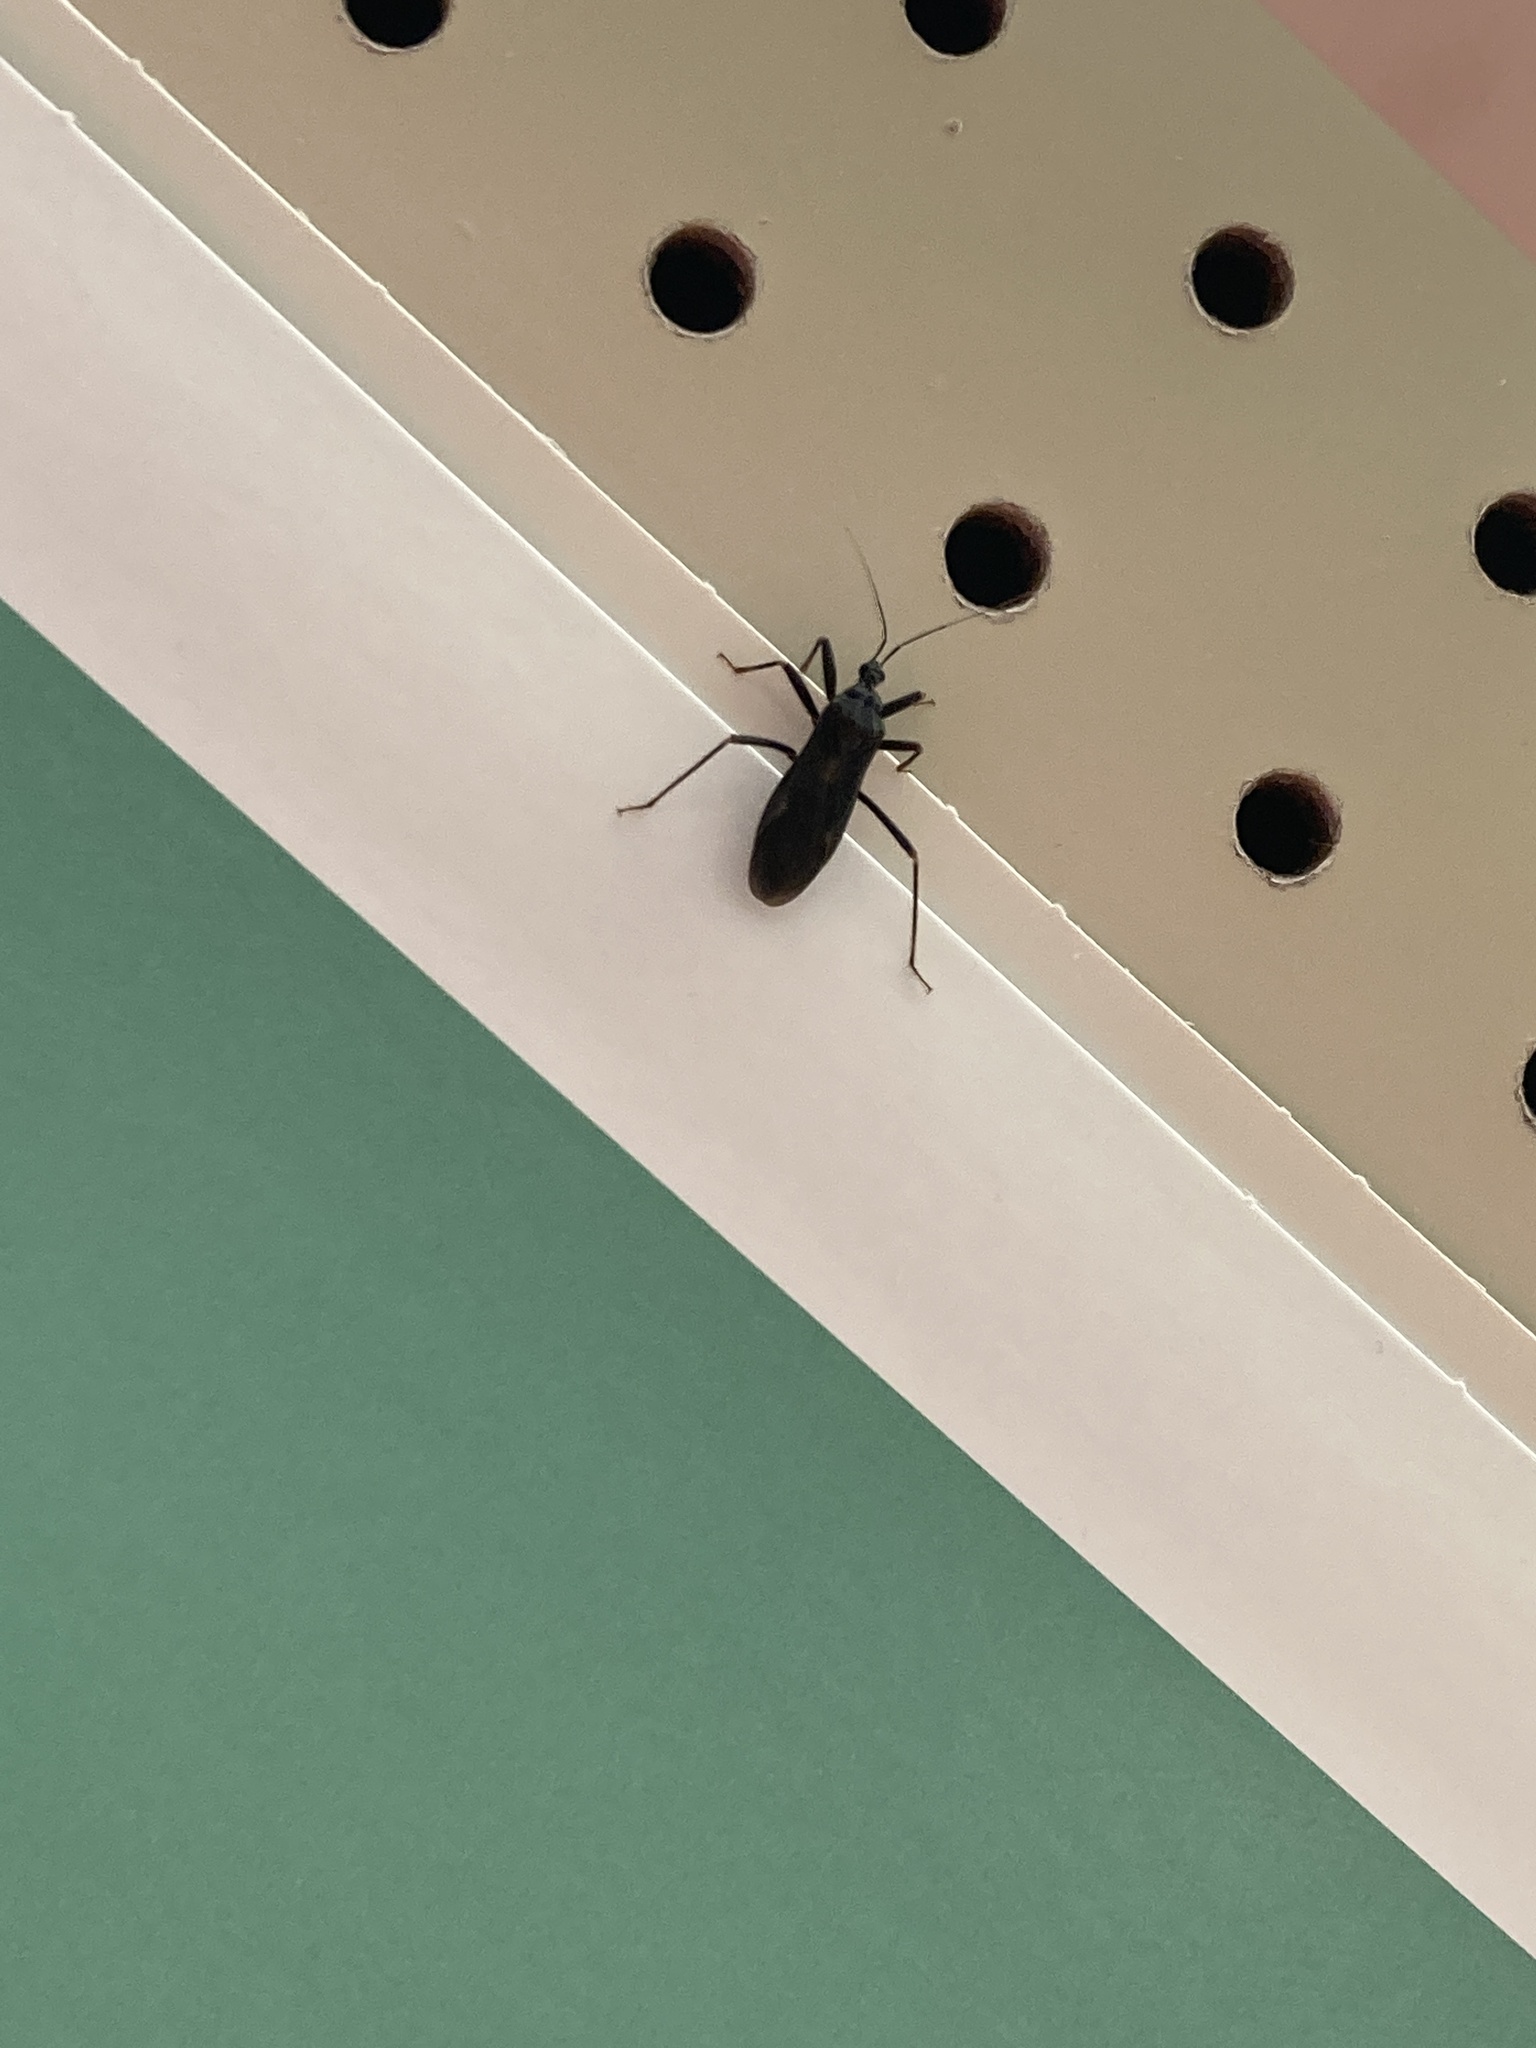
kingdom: Animalia
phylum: Arthropoda
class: Insecta
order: Hemiptera
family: Reduviidae
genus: Reduvius
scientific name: Reduvius personatus
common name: Masked hunter
